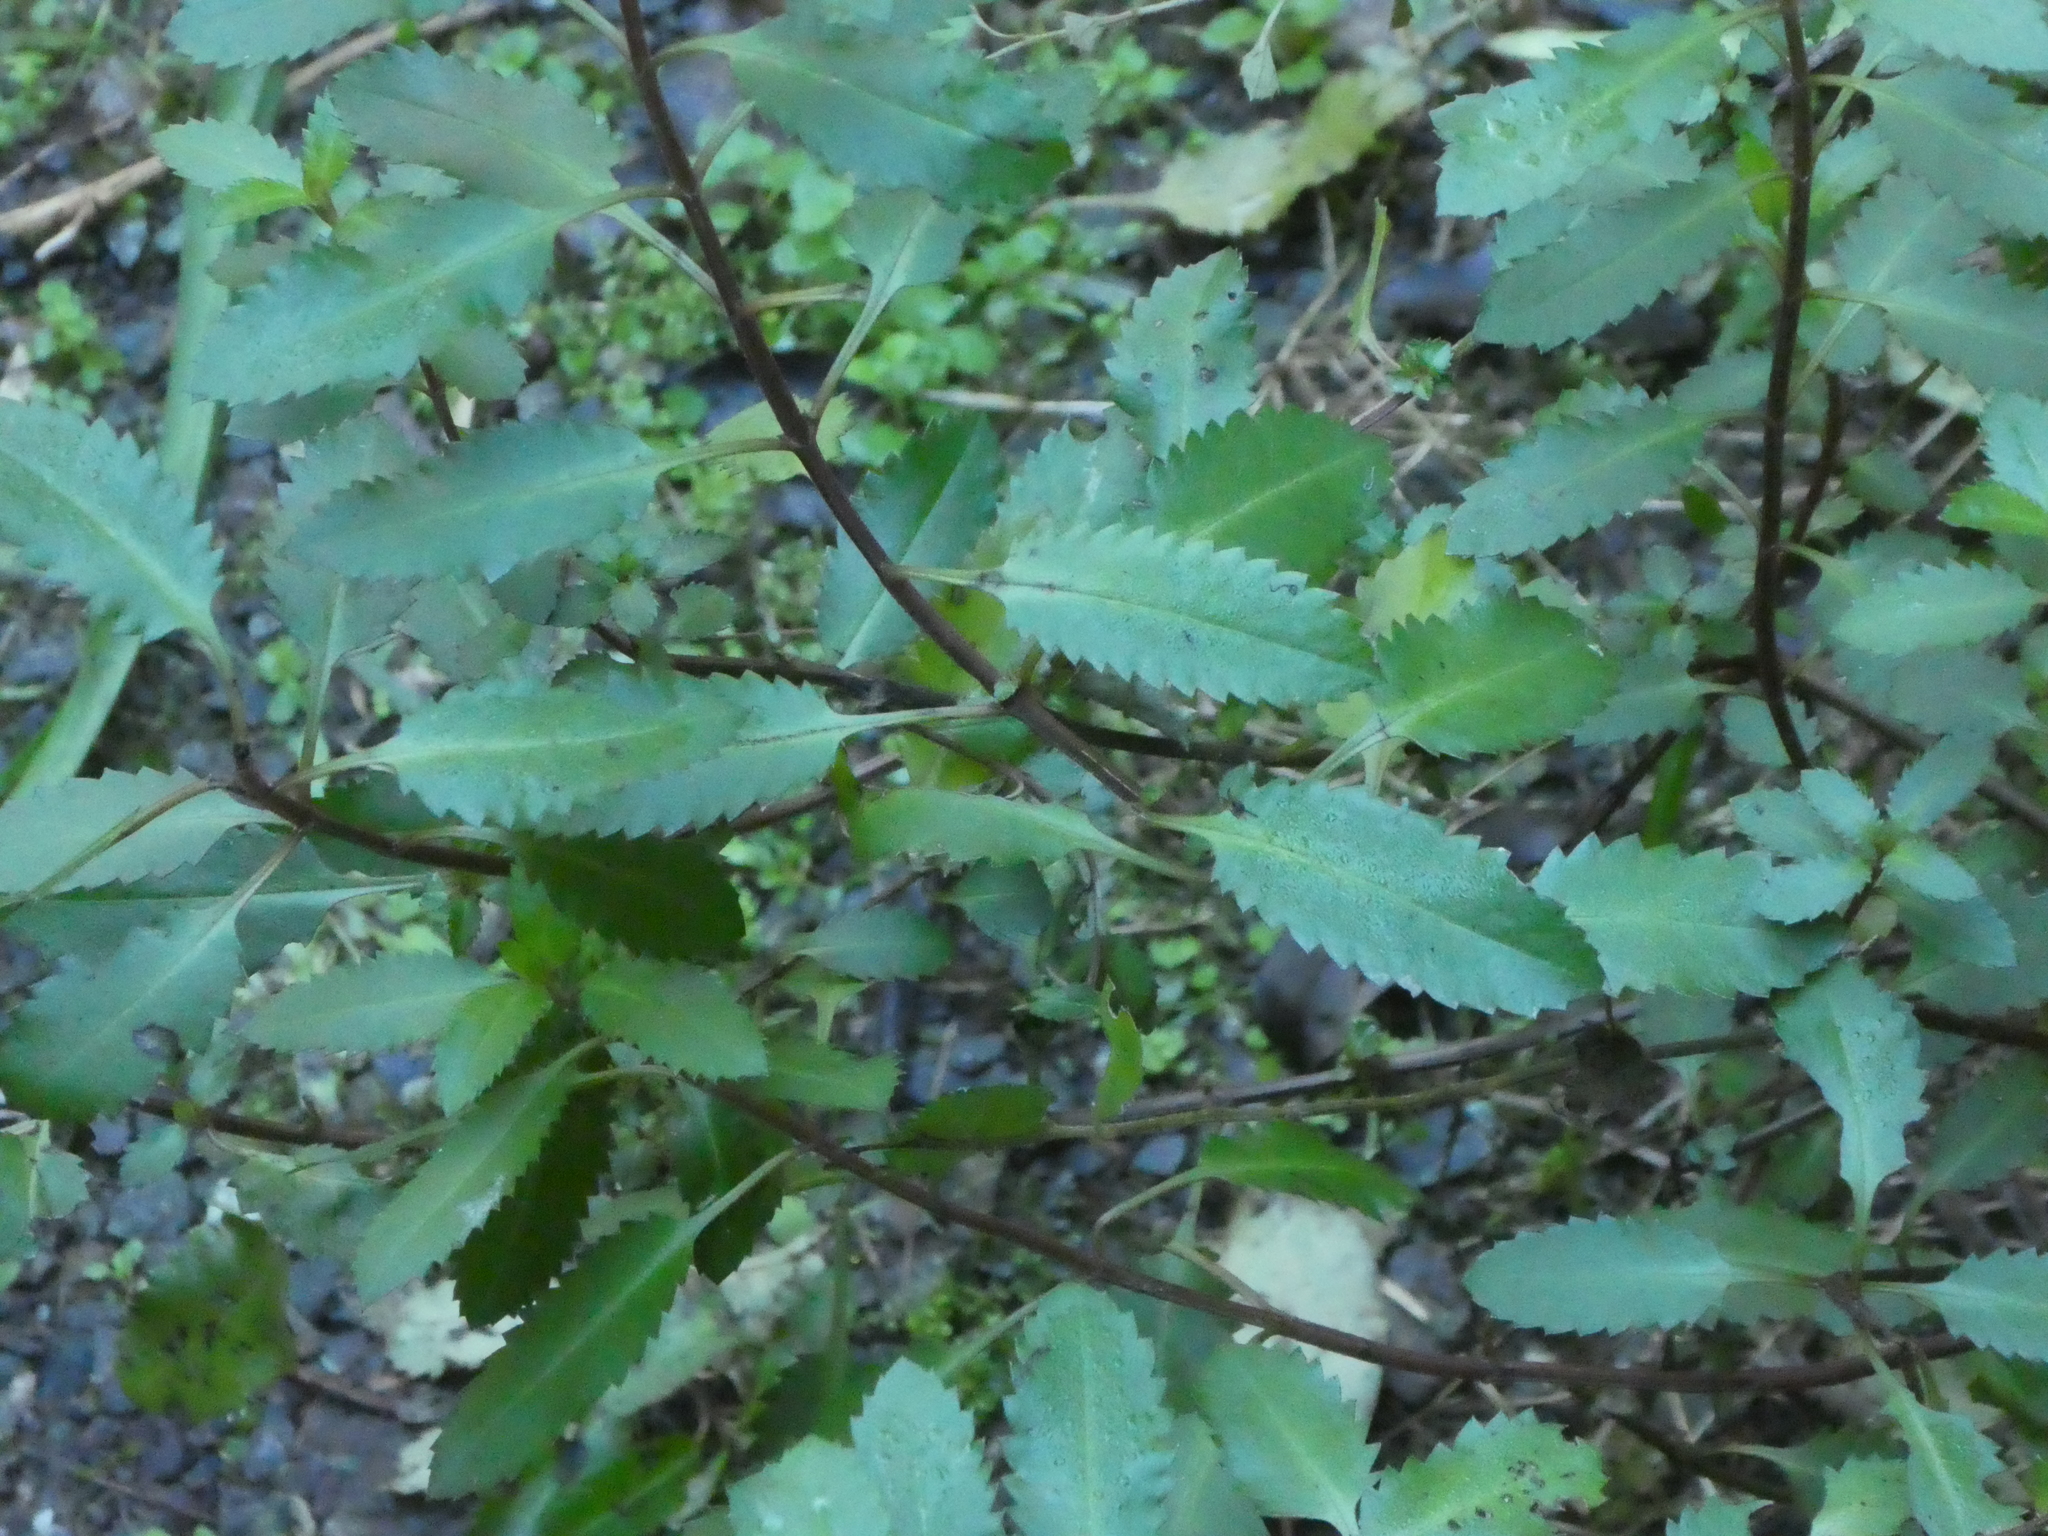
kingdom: Plantae
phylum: Tracheophyta
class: Magnoliopsida
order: Saxifragales
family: Haloragaceae
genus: Haloragis
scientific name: Haloragis erecta
